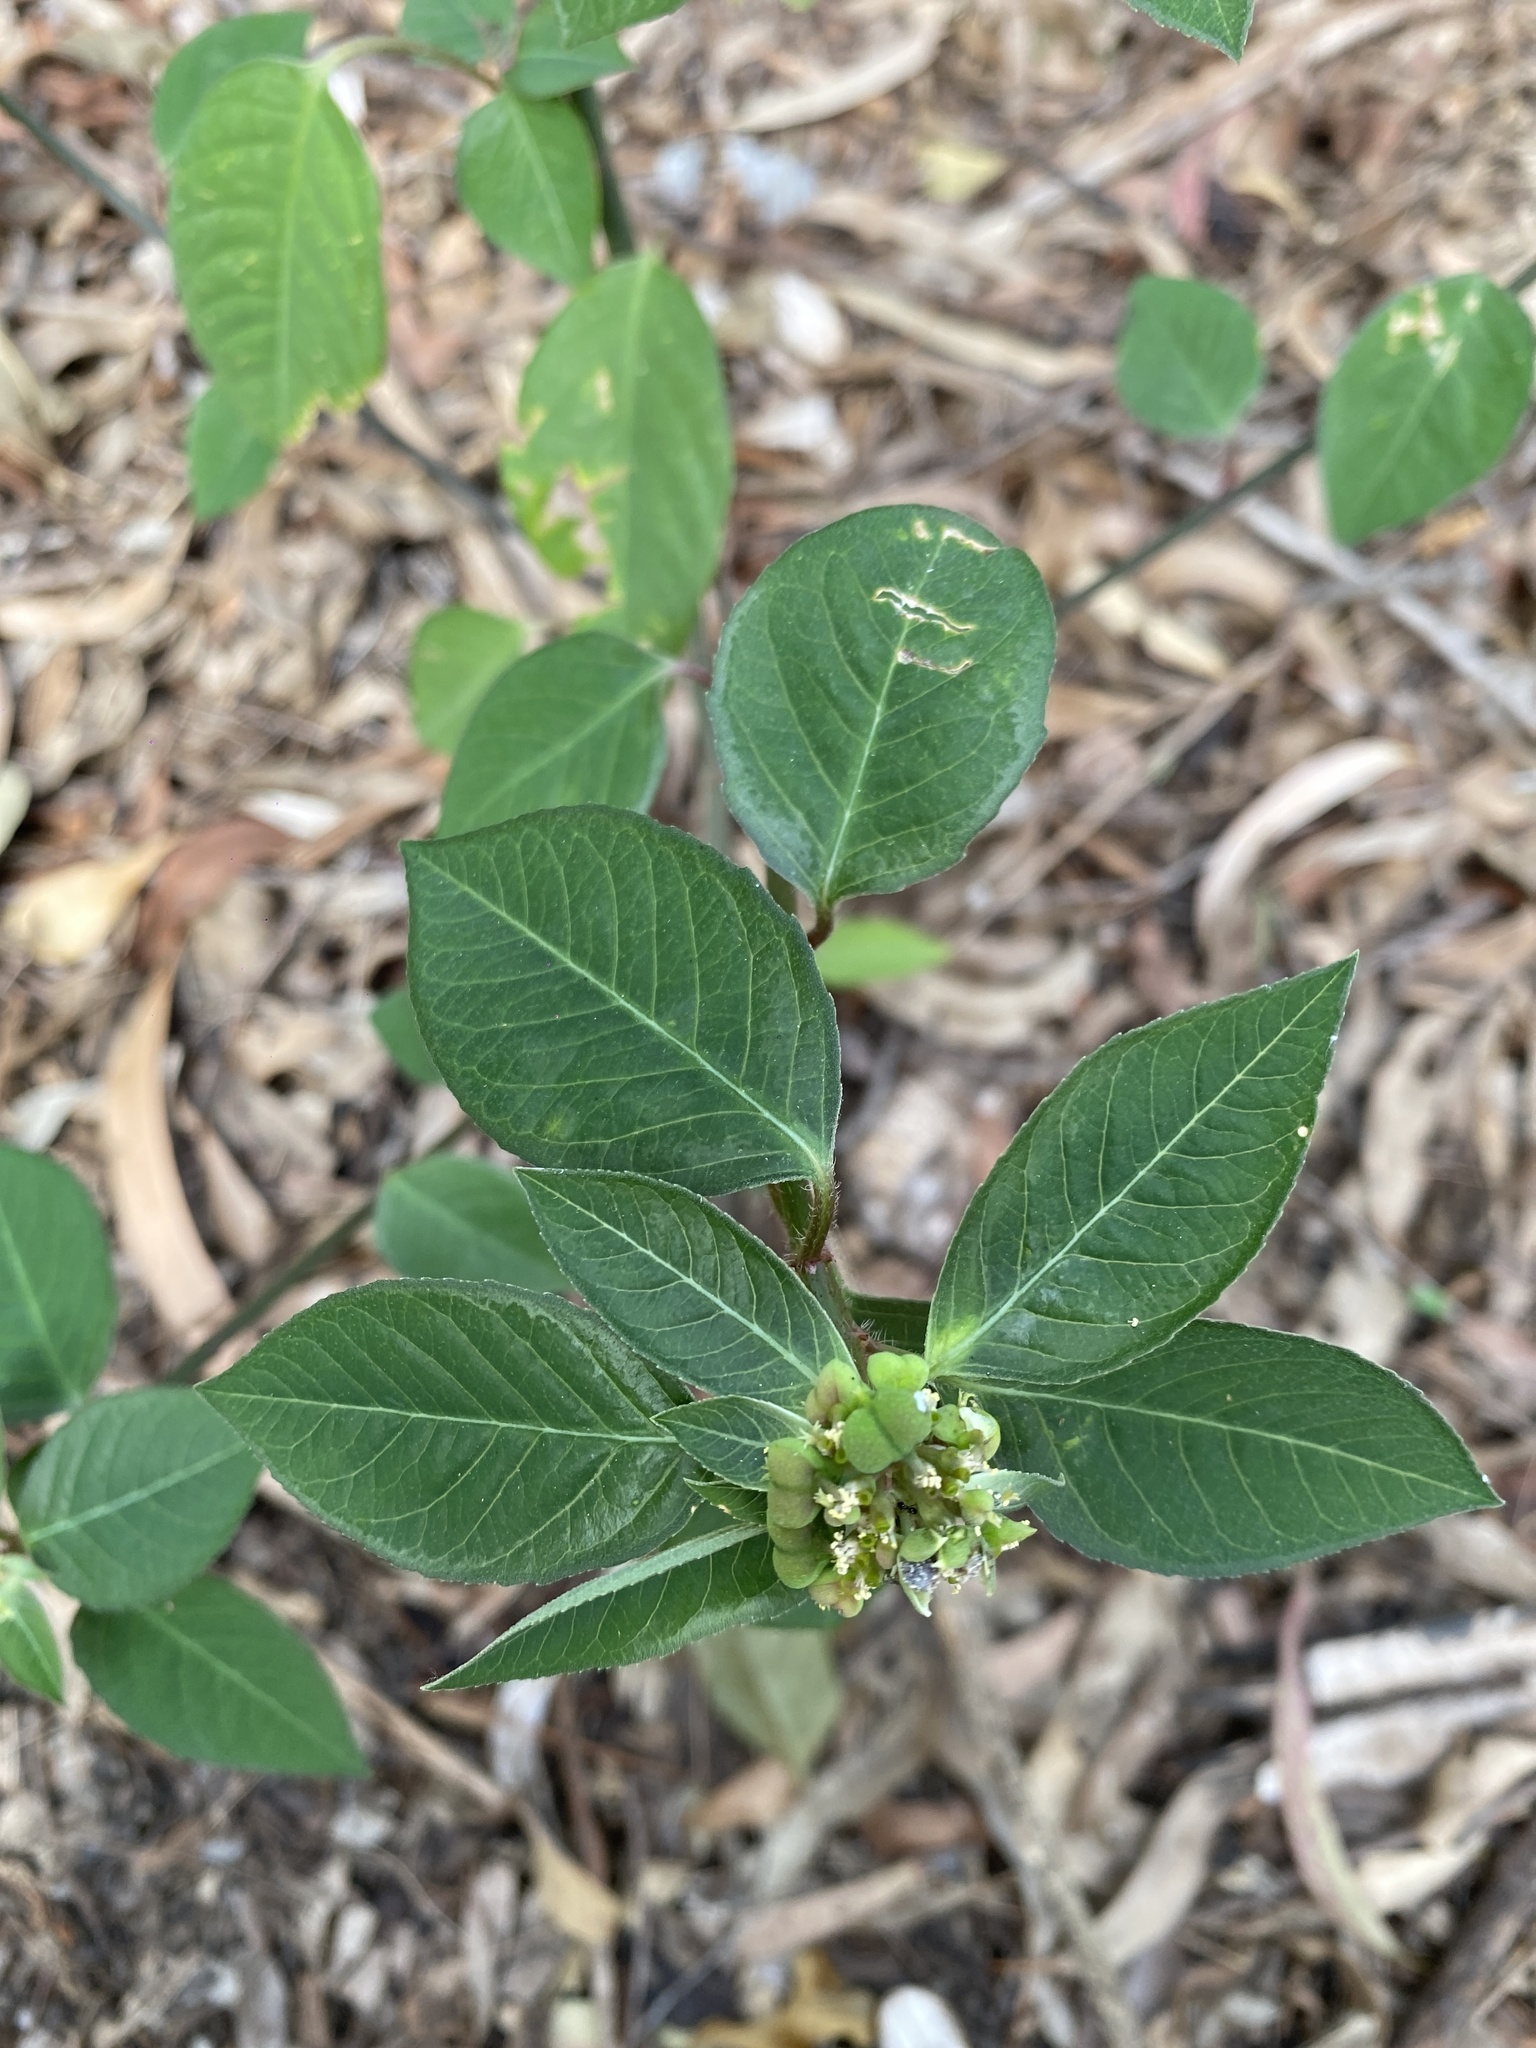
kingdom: Plantae
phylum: Tracheophyta
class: Magnoliopsida
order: Malpighiales
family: Euphorbiaceae
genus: Euphorbia
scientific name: Euphorbia heterophylla
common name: Mexican fireplant
